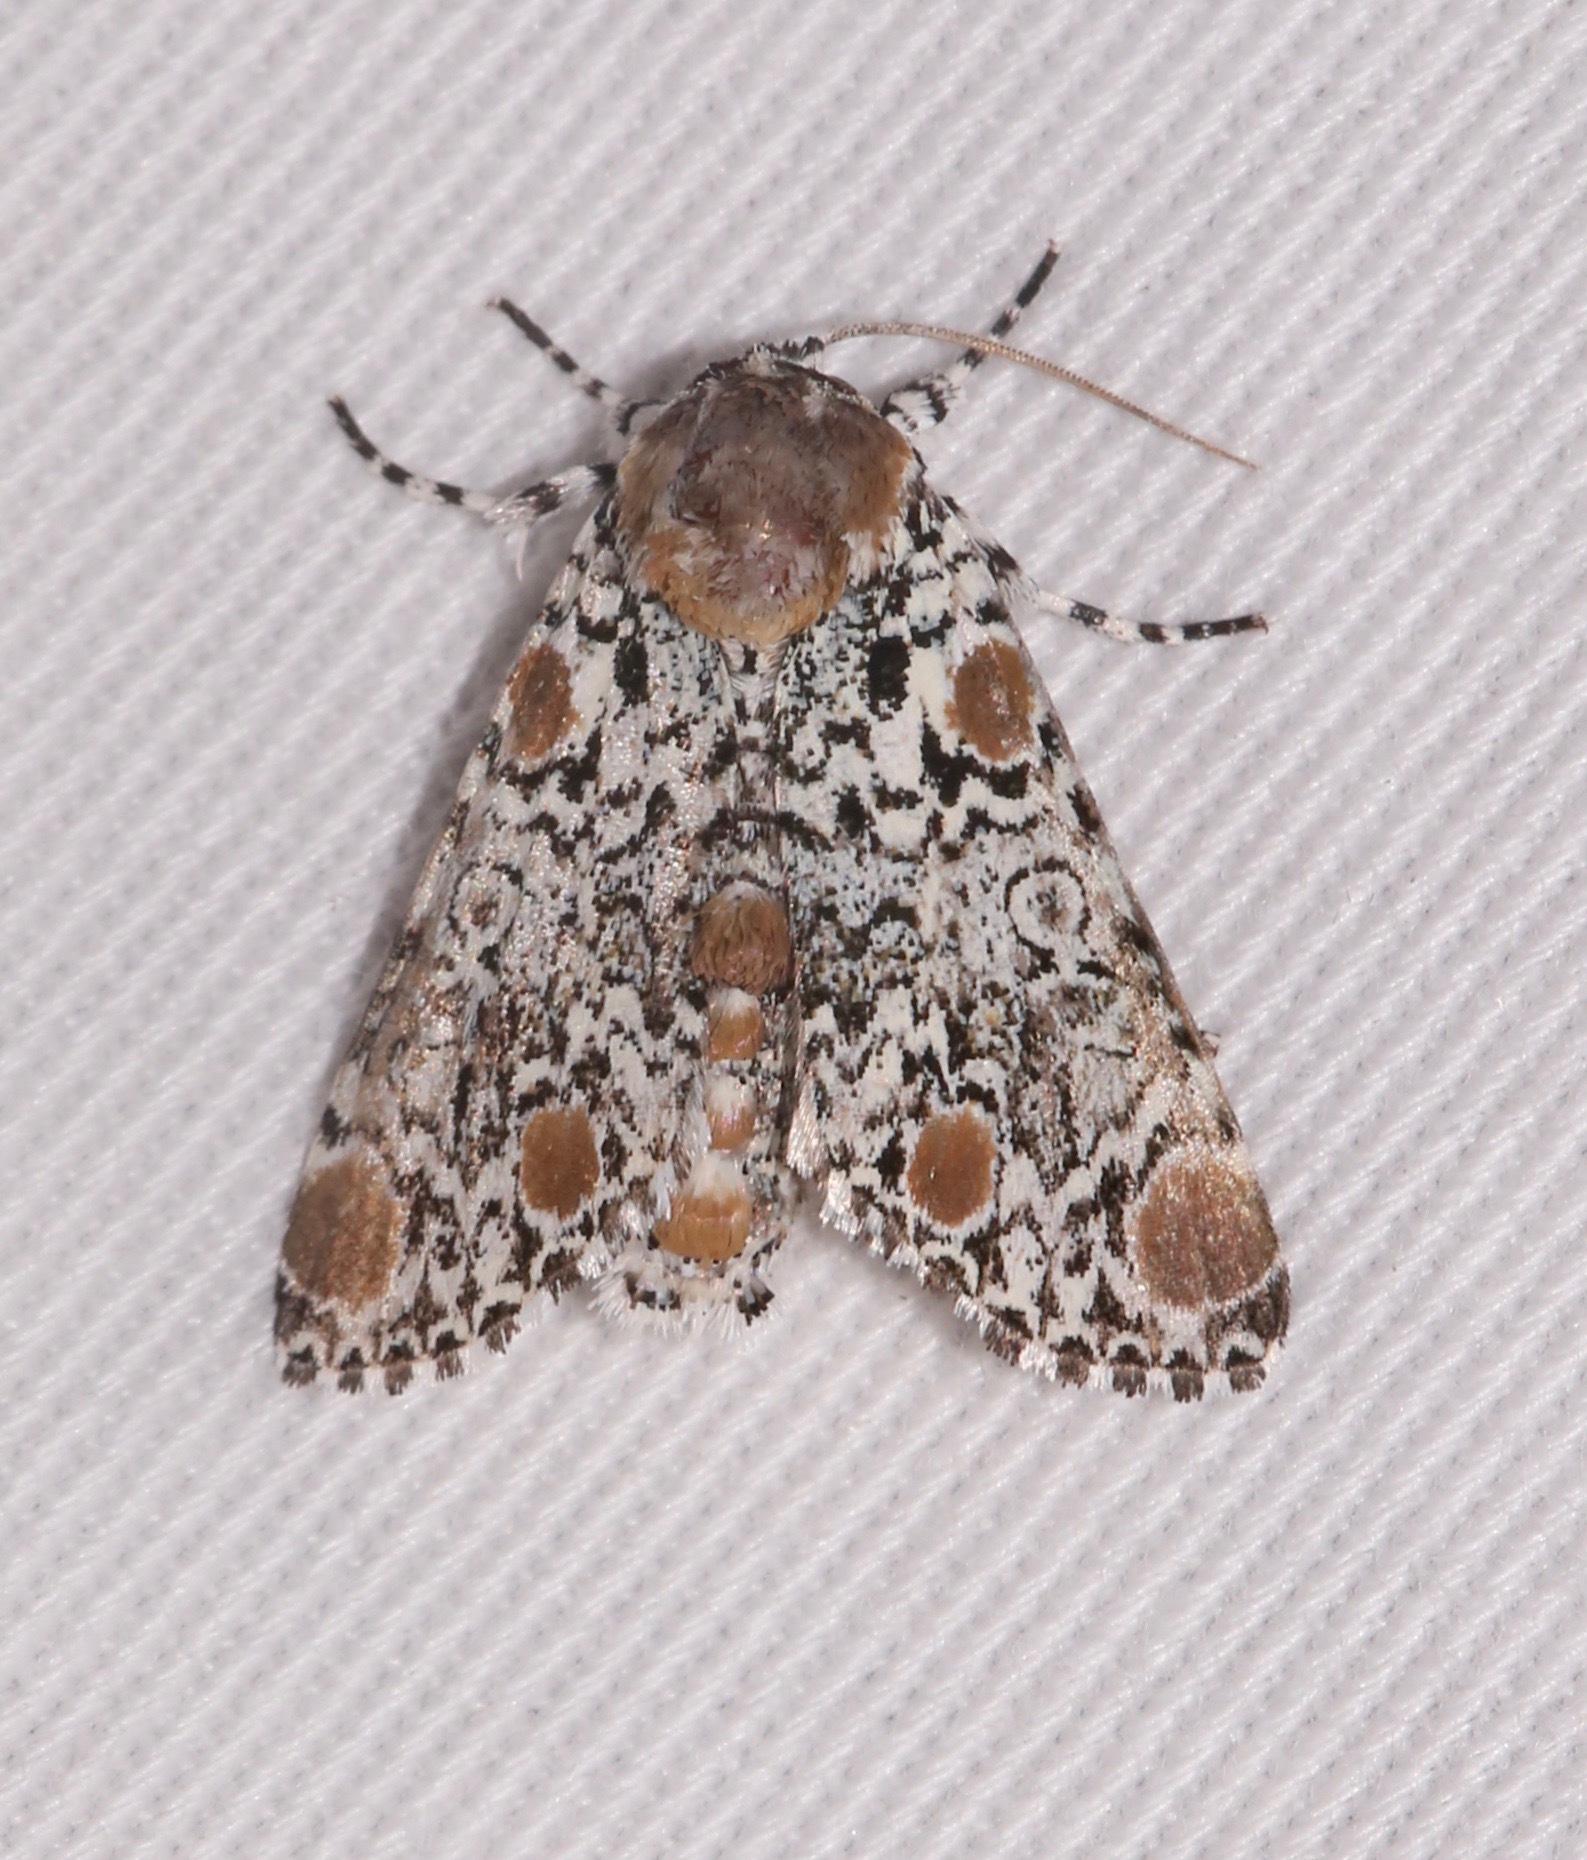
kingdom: Animalia
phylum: Arthropoda
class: Insecta
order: Lepidoptera
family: Noctuidae
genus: Harrisimemna
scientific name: Harrisimemna trisignata
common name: Harris threespot
